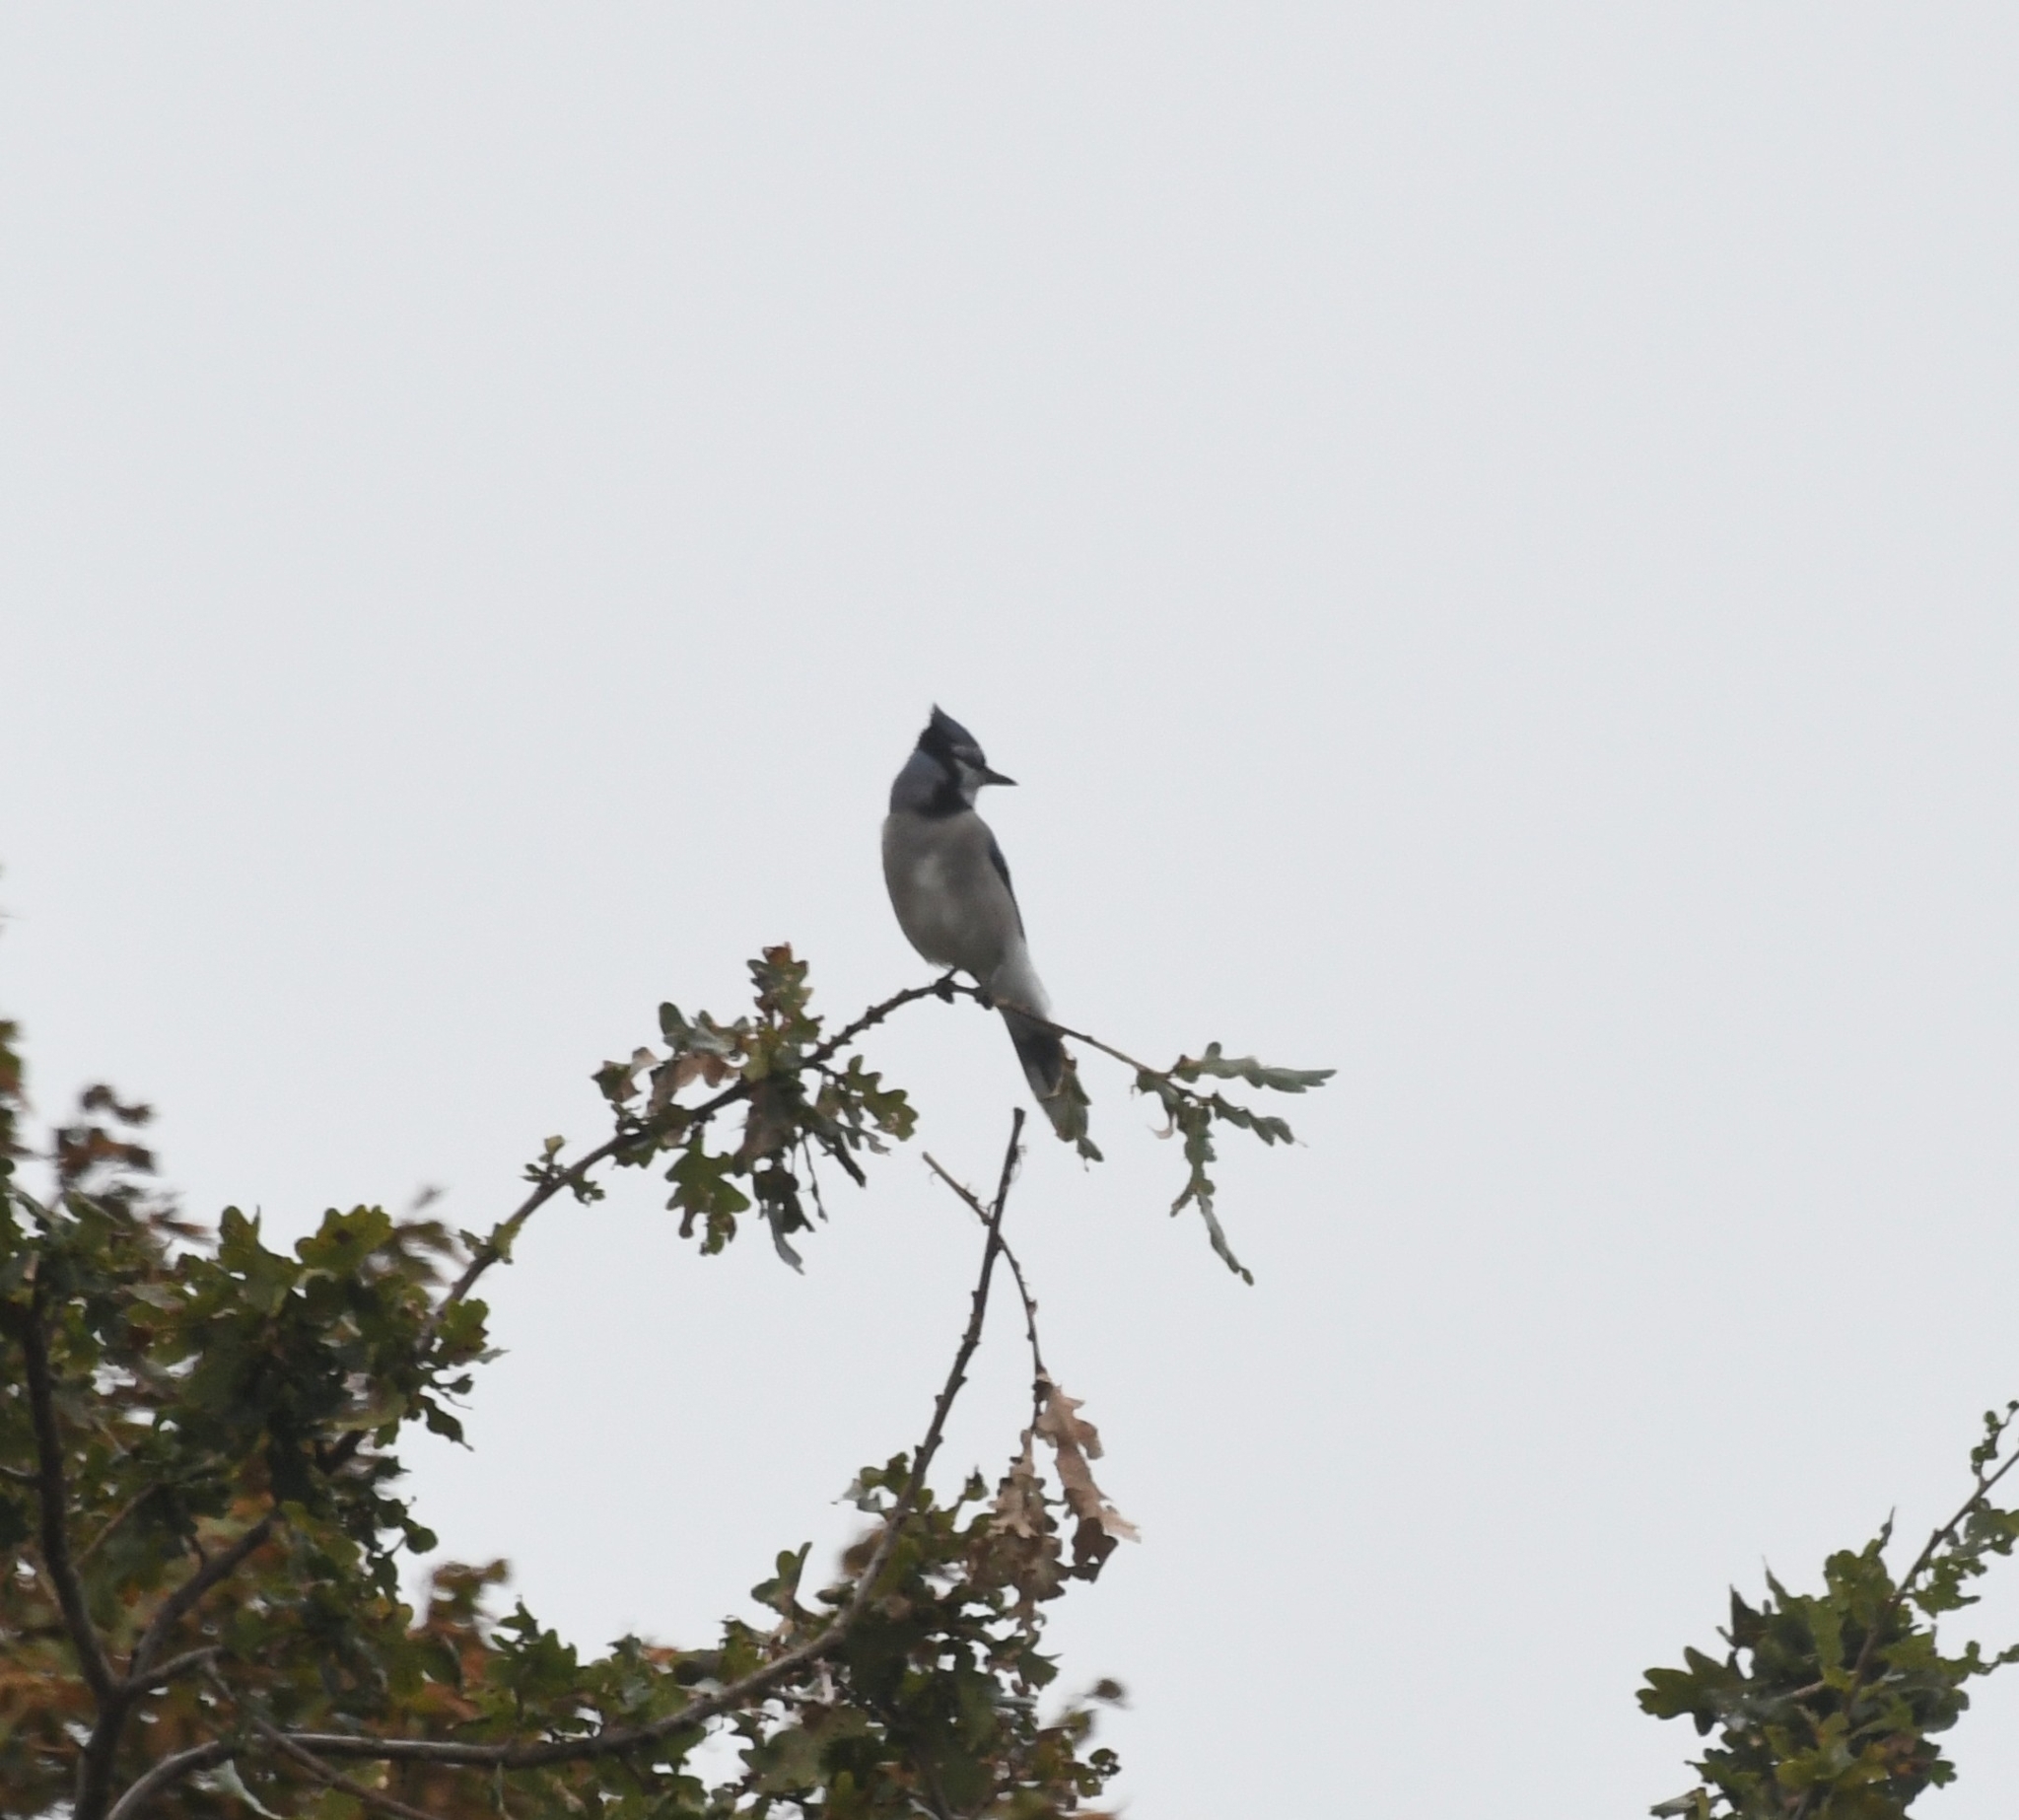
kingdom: Animalia
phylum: Chordata
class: Aves
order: Passeriformes
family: Corvidae
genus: Cyanocitta
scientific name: Cyanocitta cristata
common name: Blue jay
